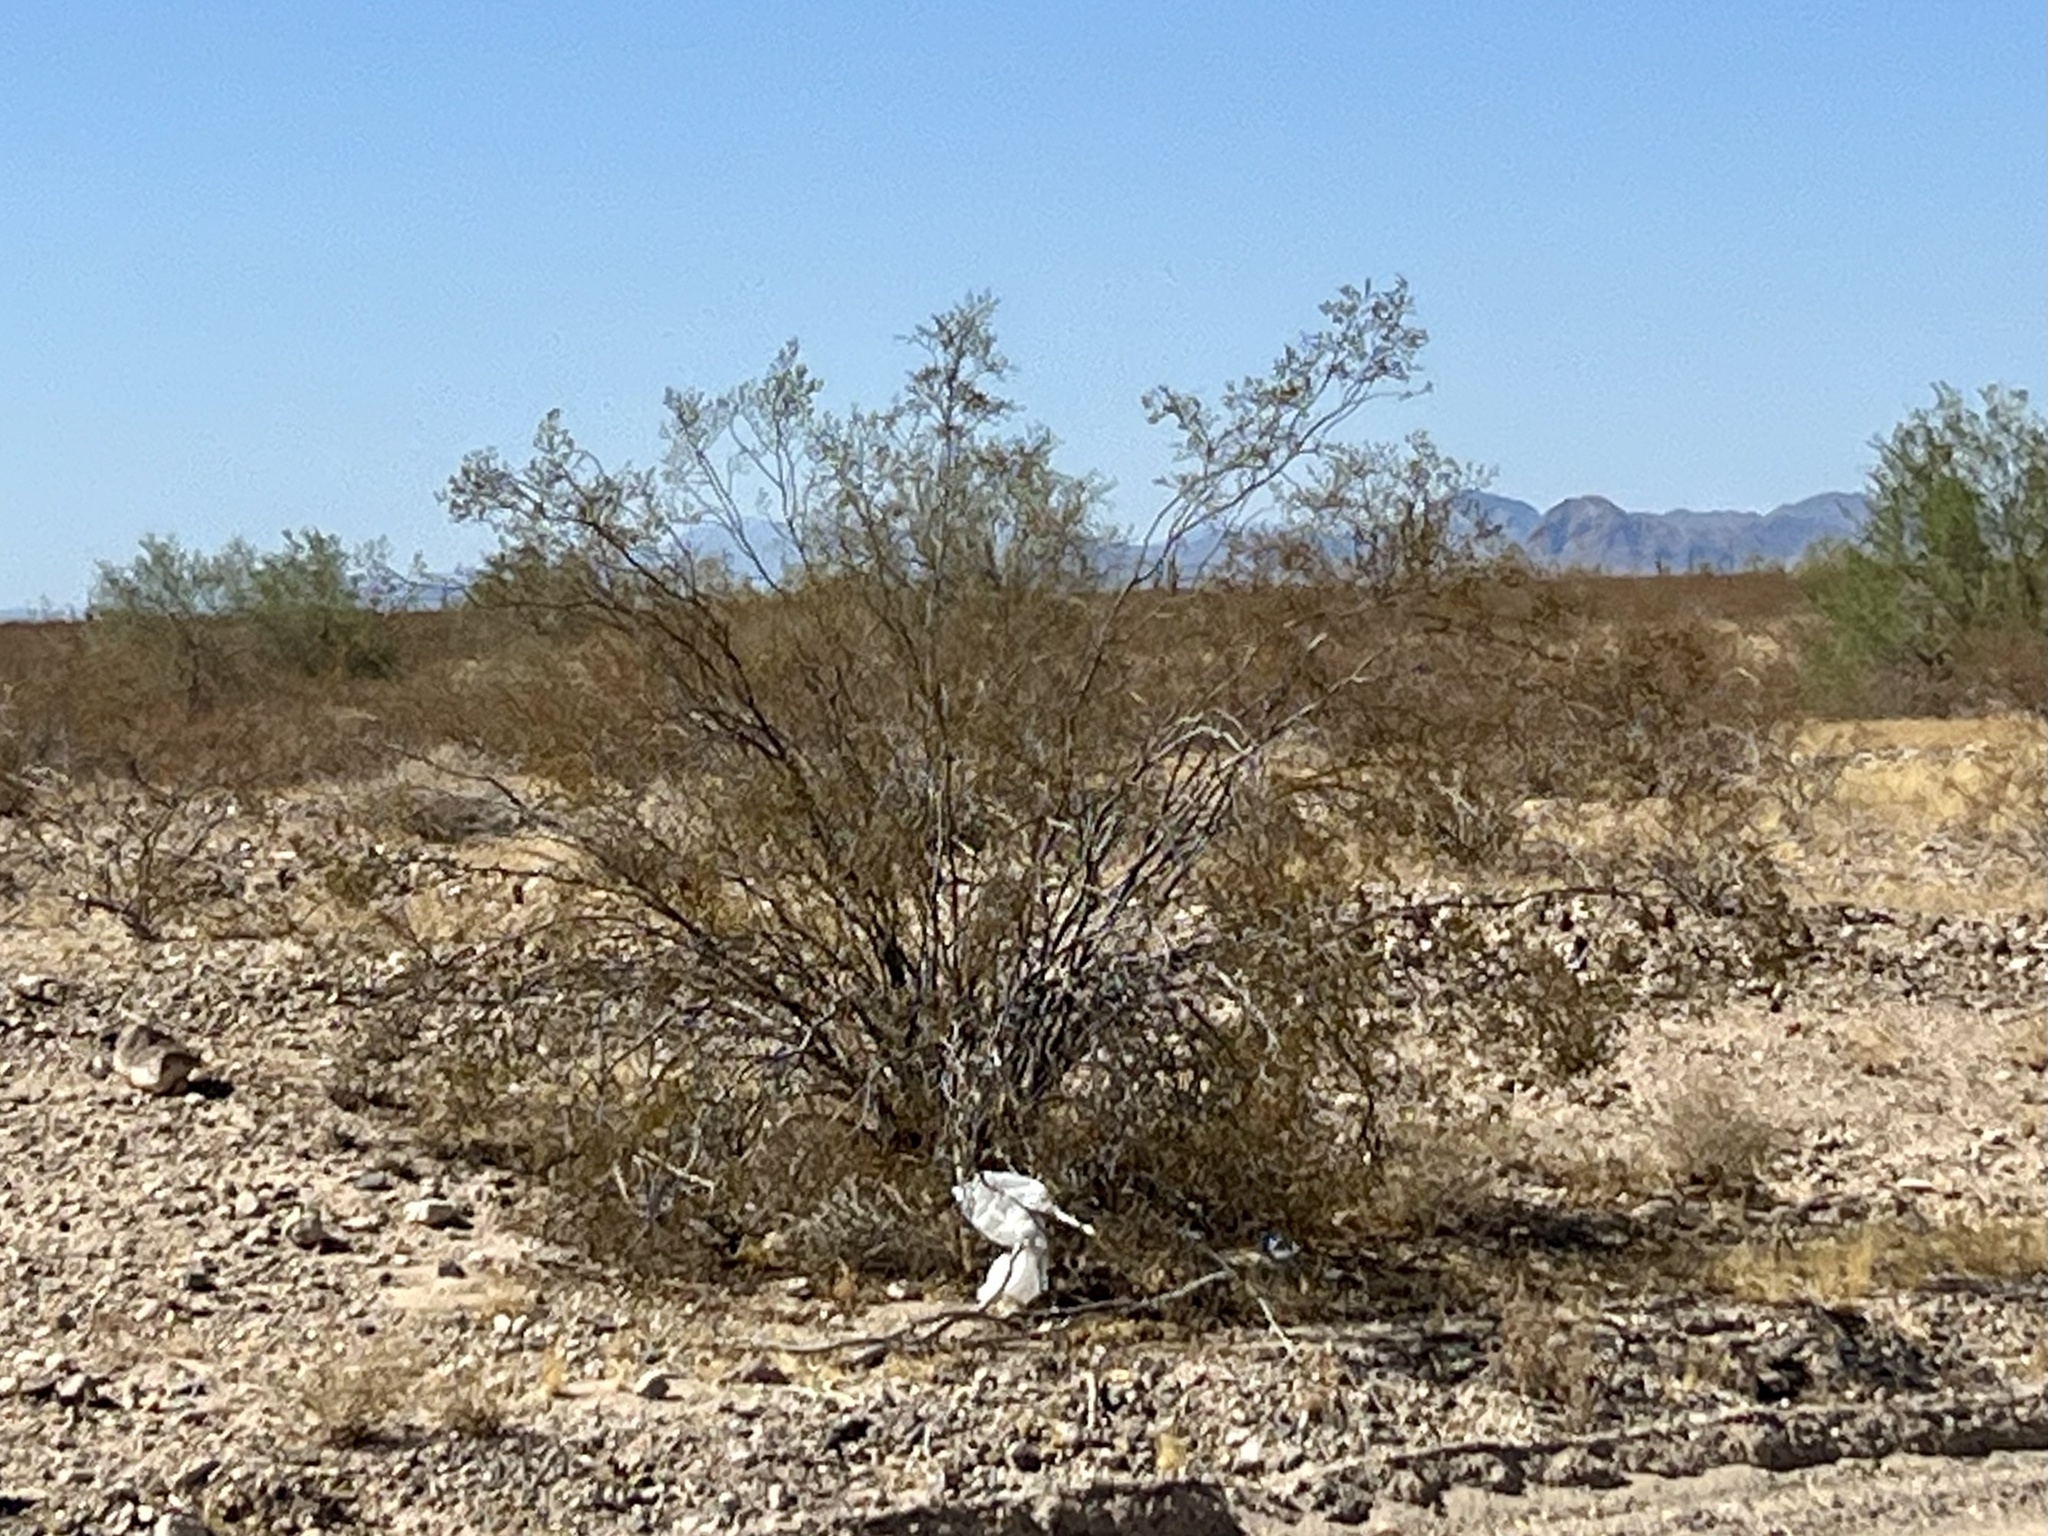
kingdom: Plantae
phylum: Tracheophyta
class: Magnoliopsida
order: Zygophyllales
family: Zygophyllaceae
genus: Larrea
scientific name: Larrea tridentata
